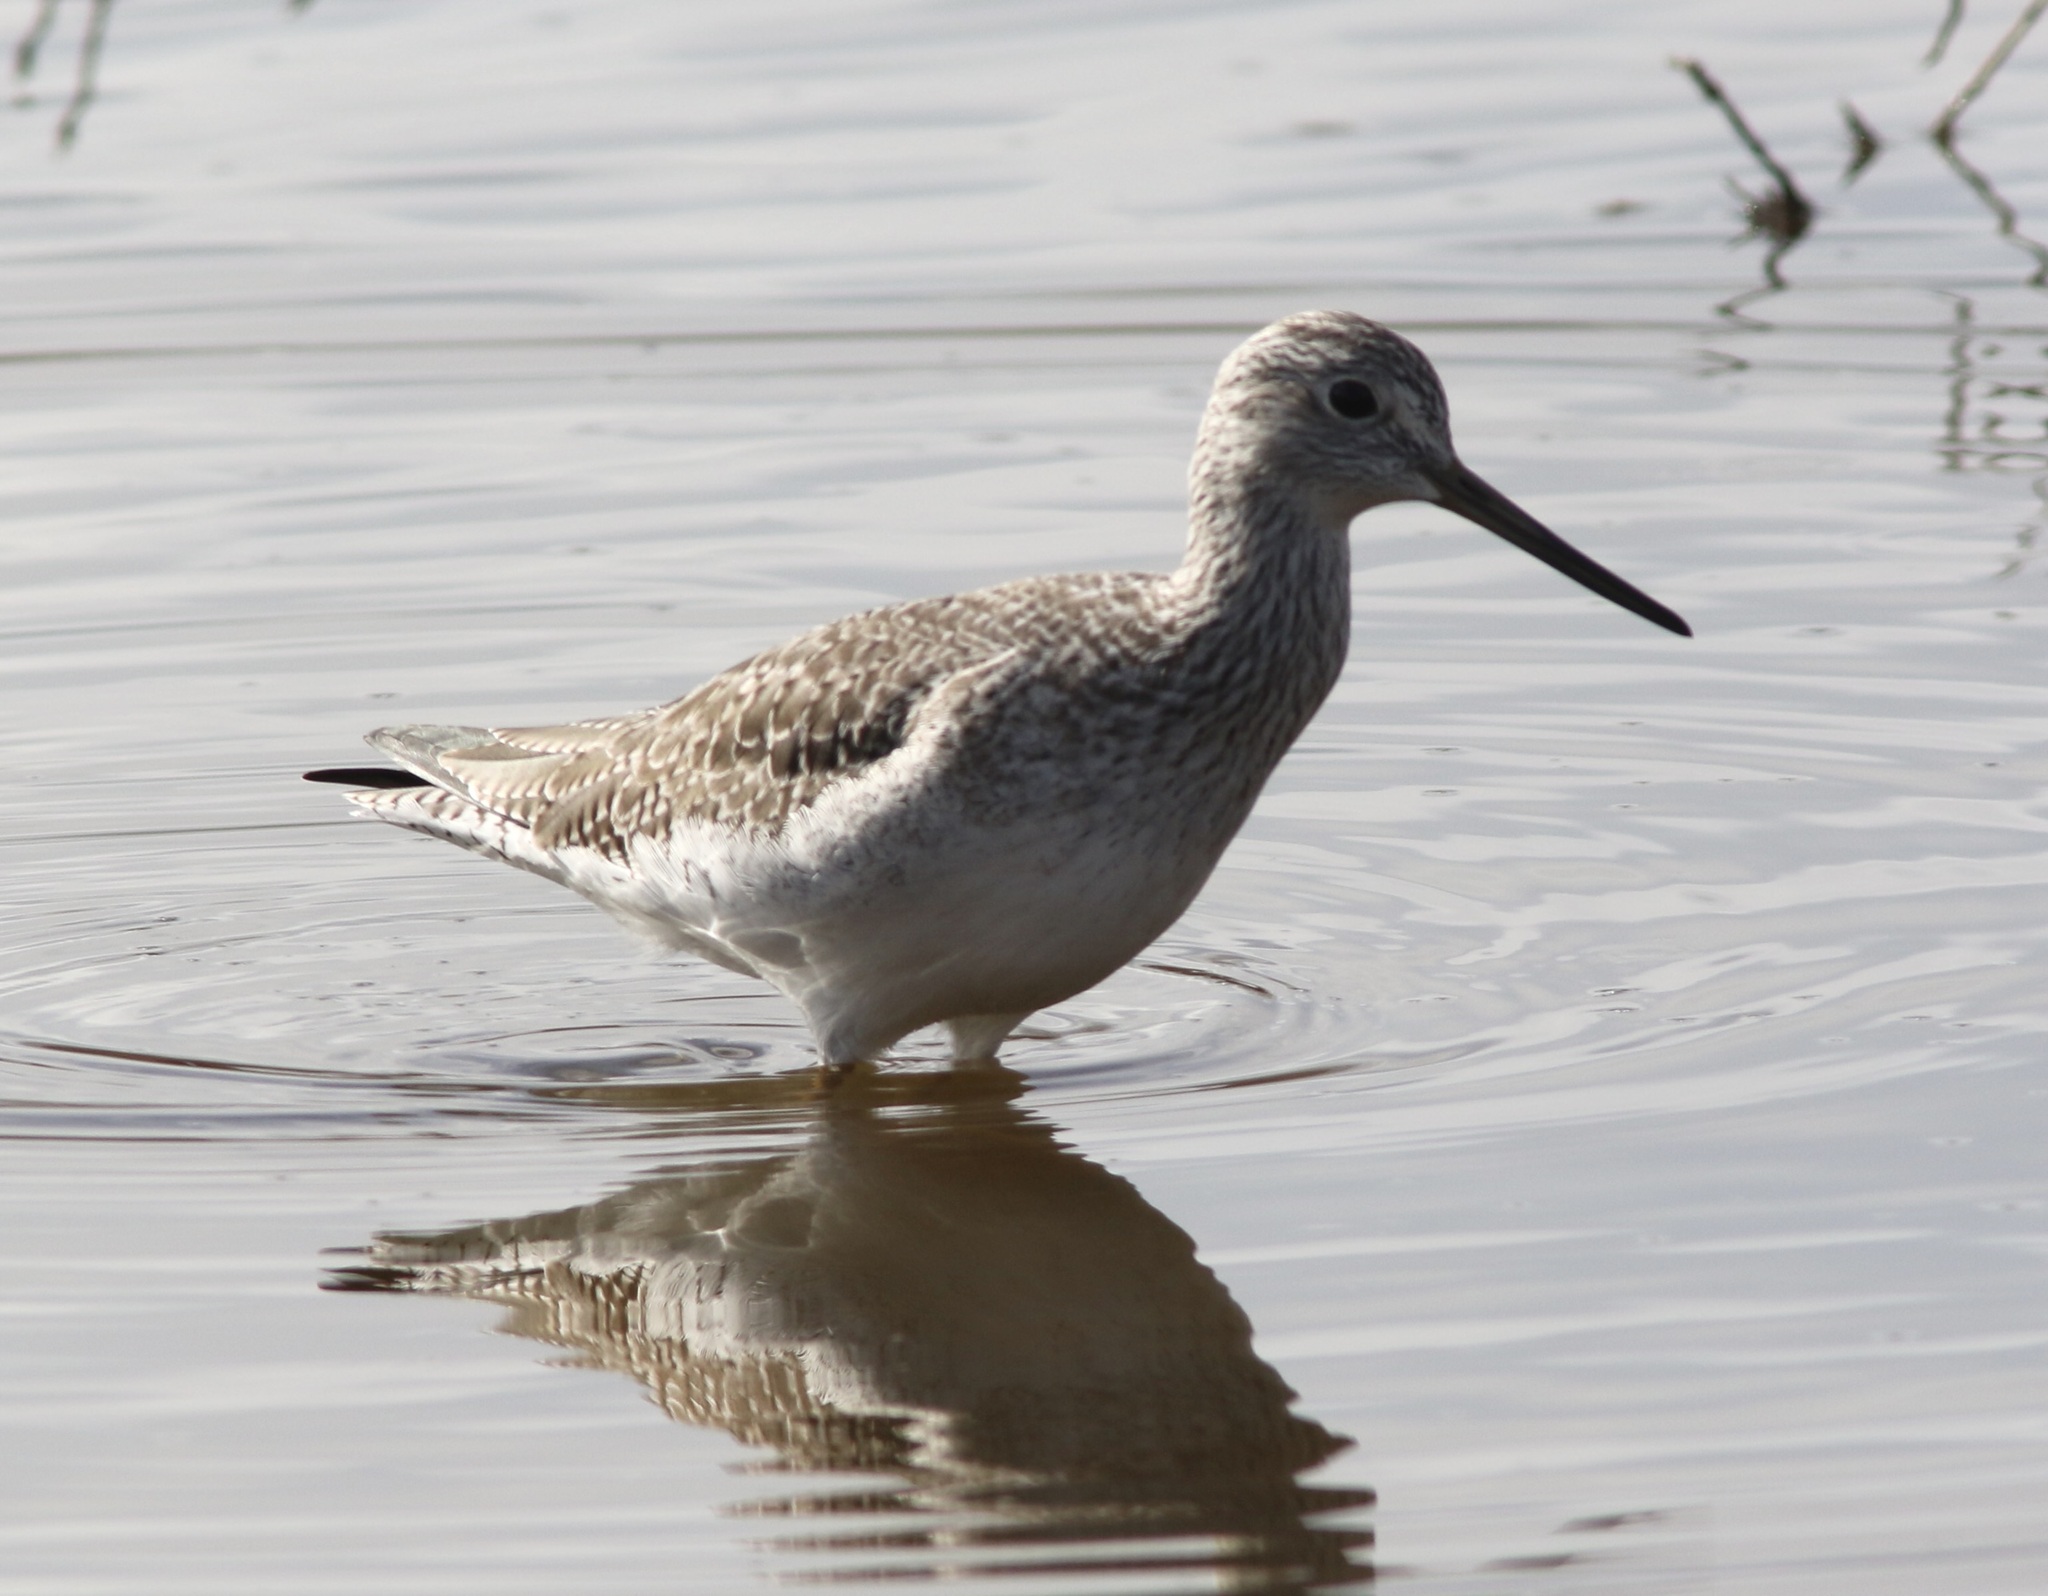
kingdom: Animalia
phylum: Chordata
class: Aves
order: Charadriiformes
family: Scolopacidae
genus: Tringa
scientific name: Tringa melanoleuca
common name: Greater yellowlegs
